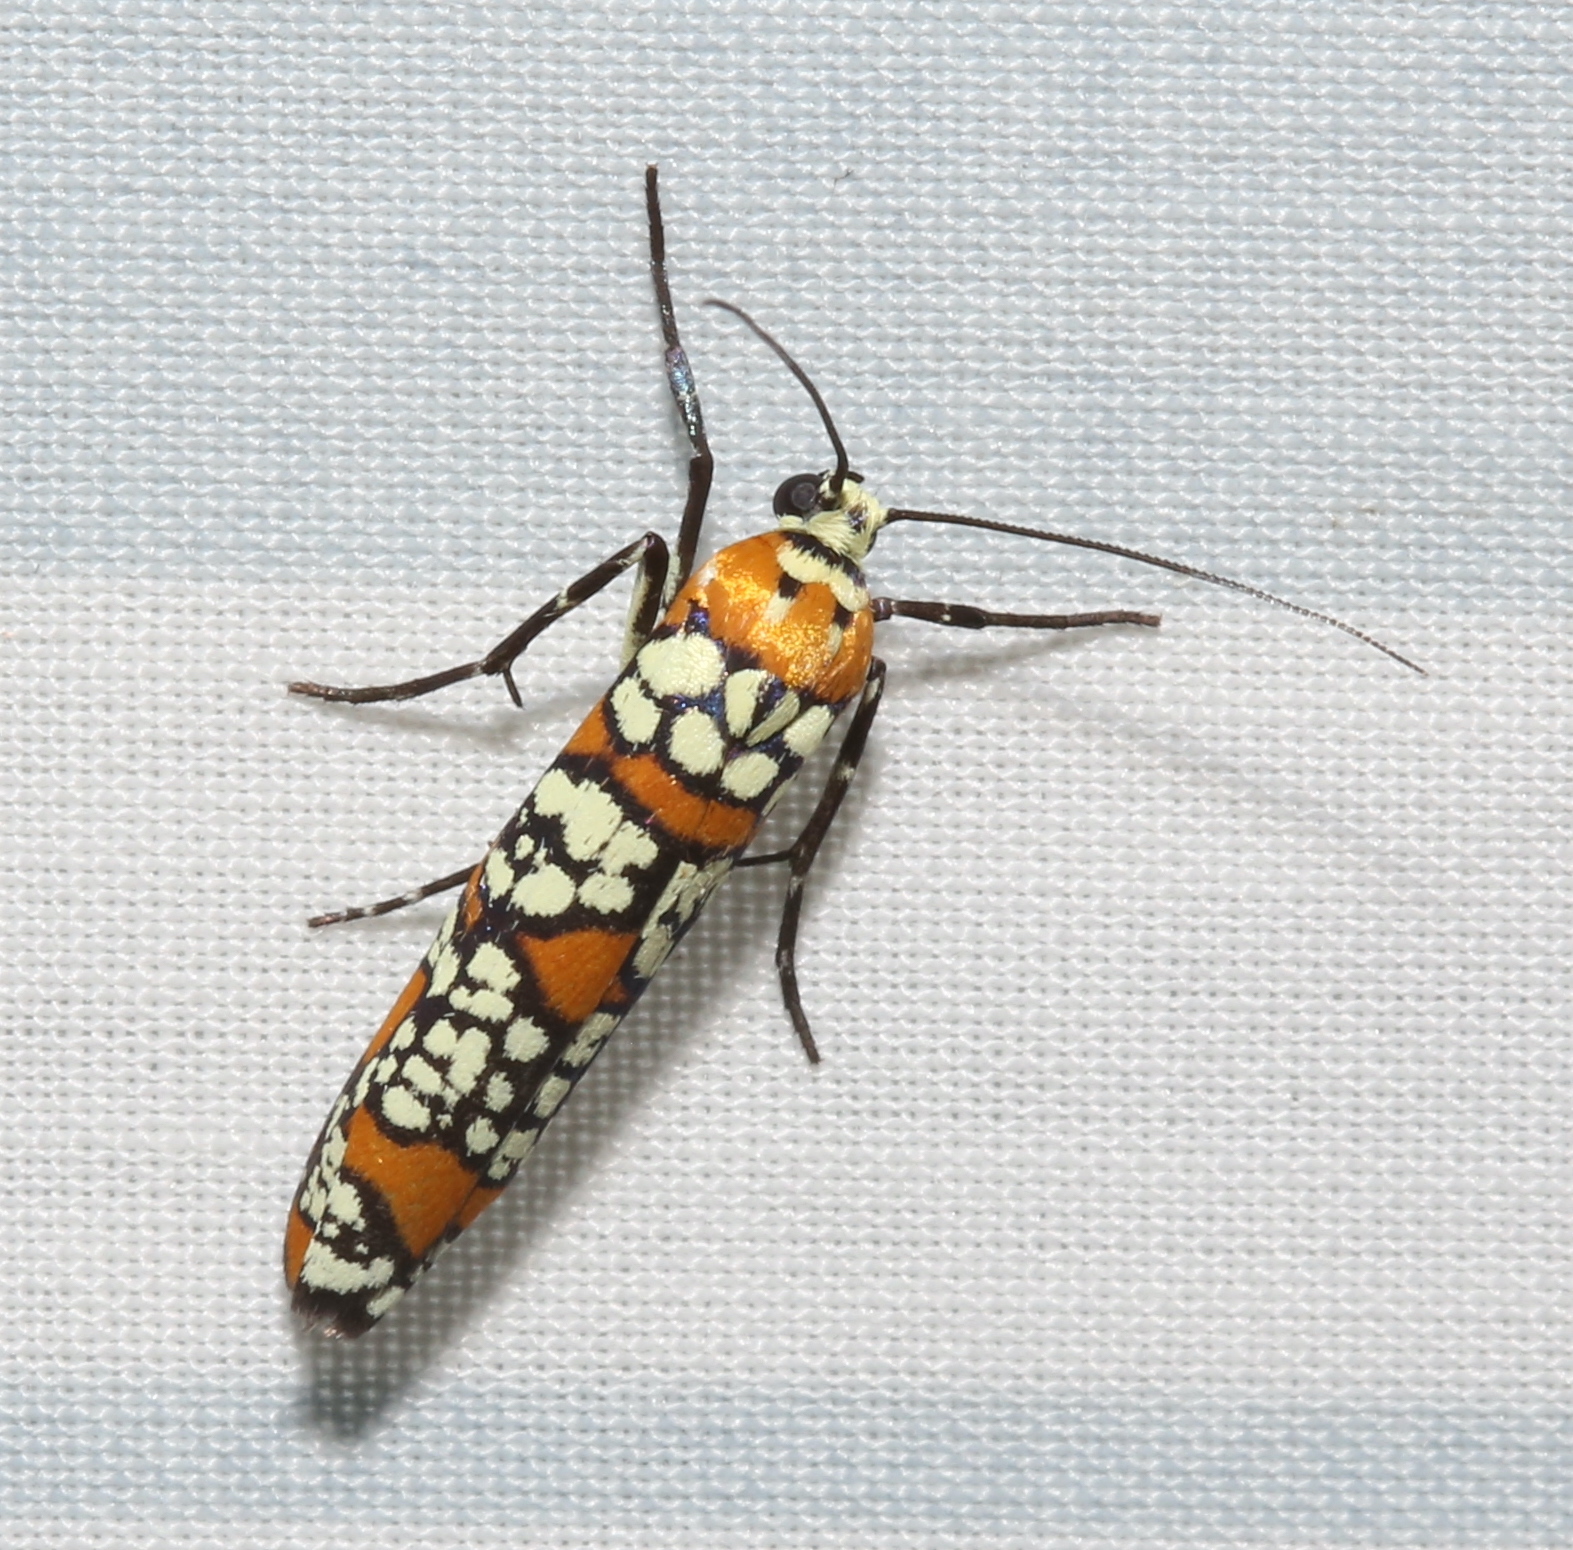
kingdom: Animalia
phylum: Arthropoda
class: Insecta
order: Lepidoptera
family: Attevidae
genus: Atteva
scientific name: Atteva punctella
